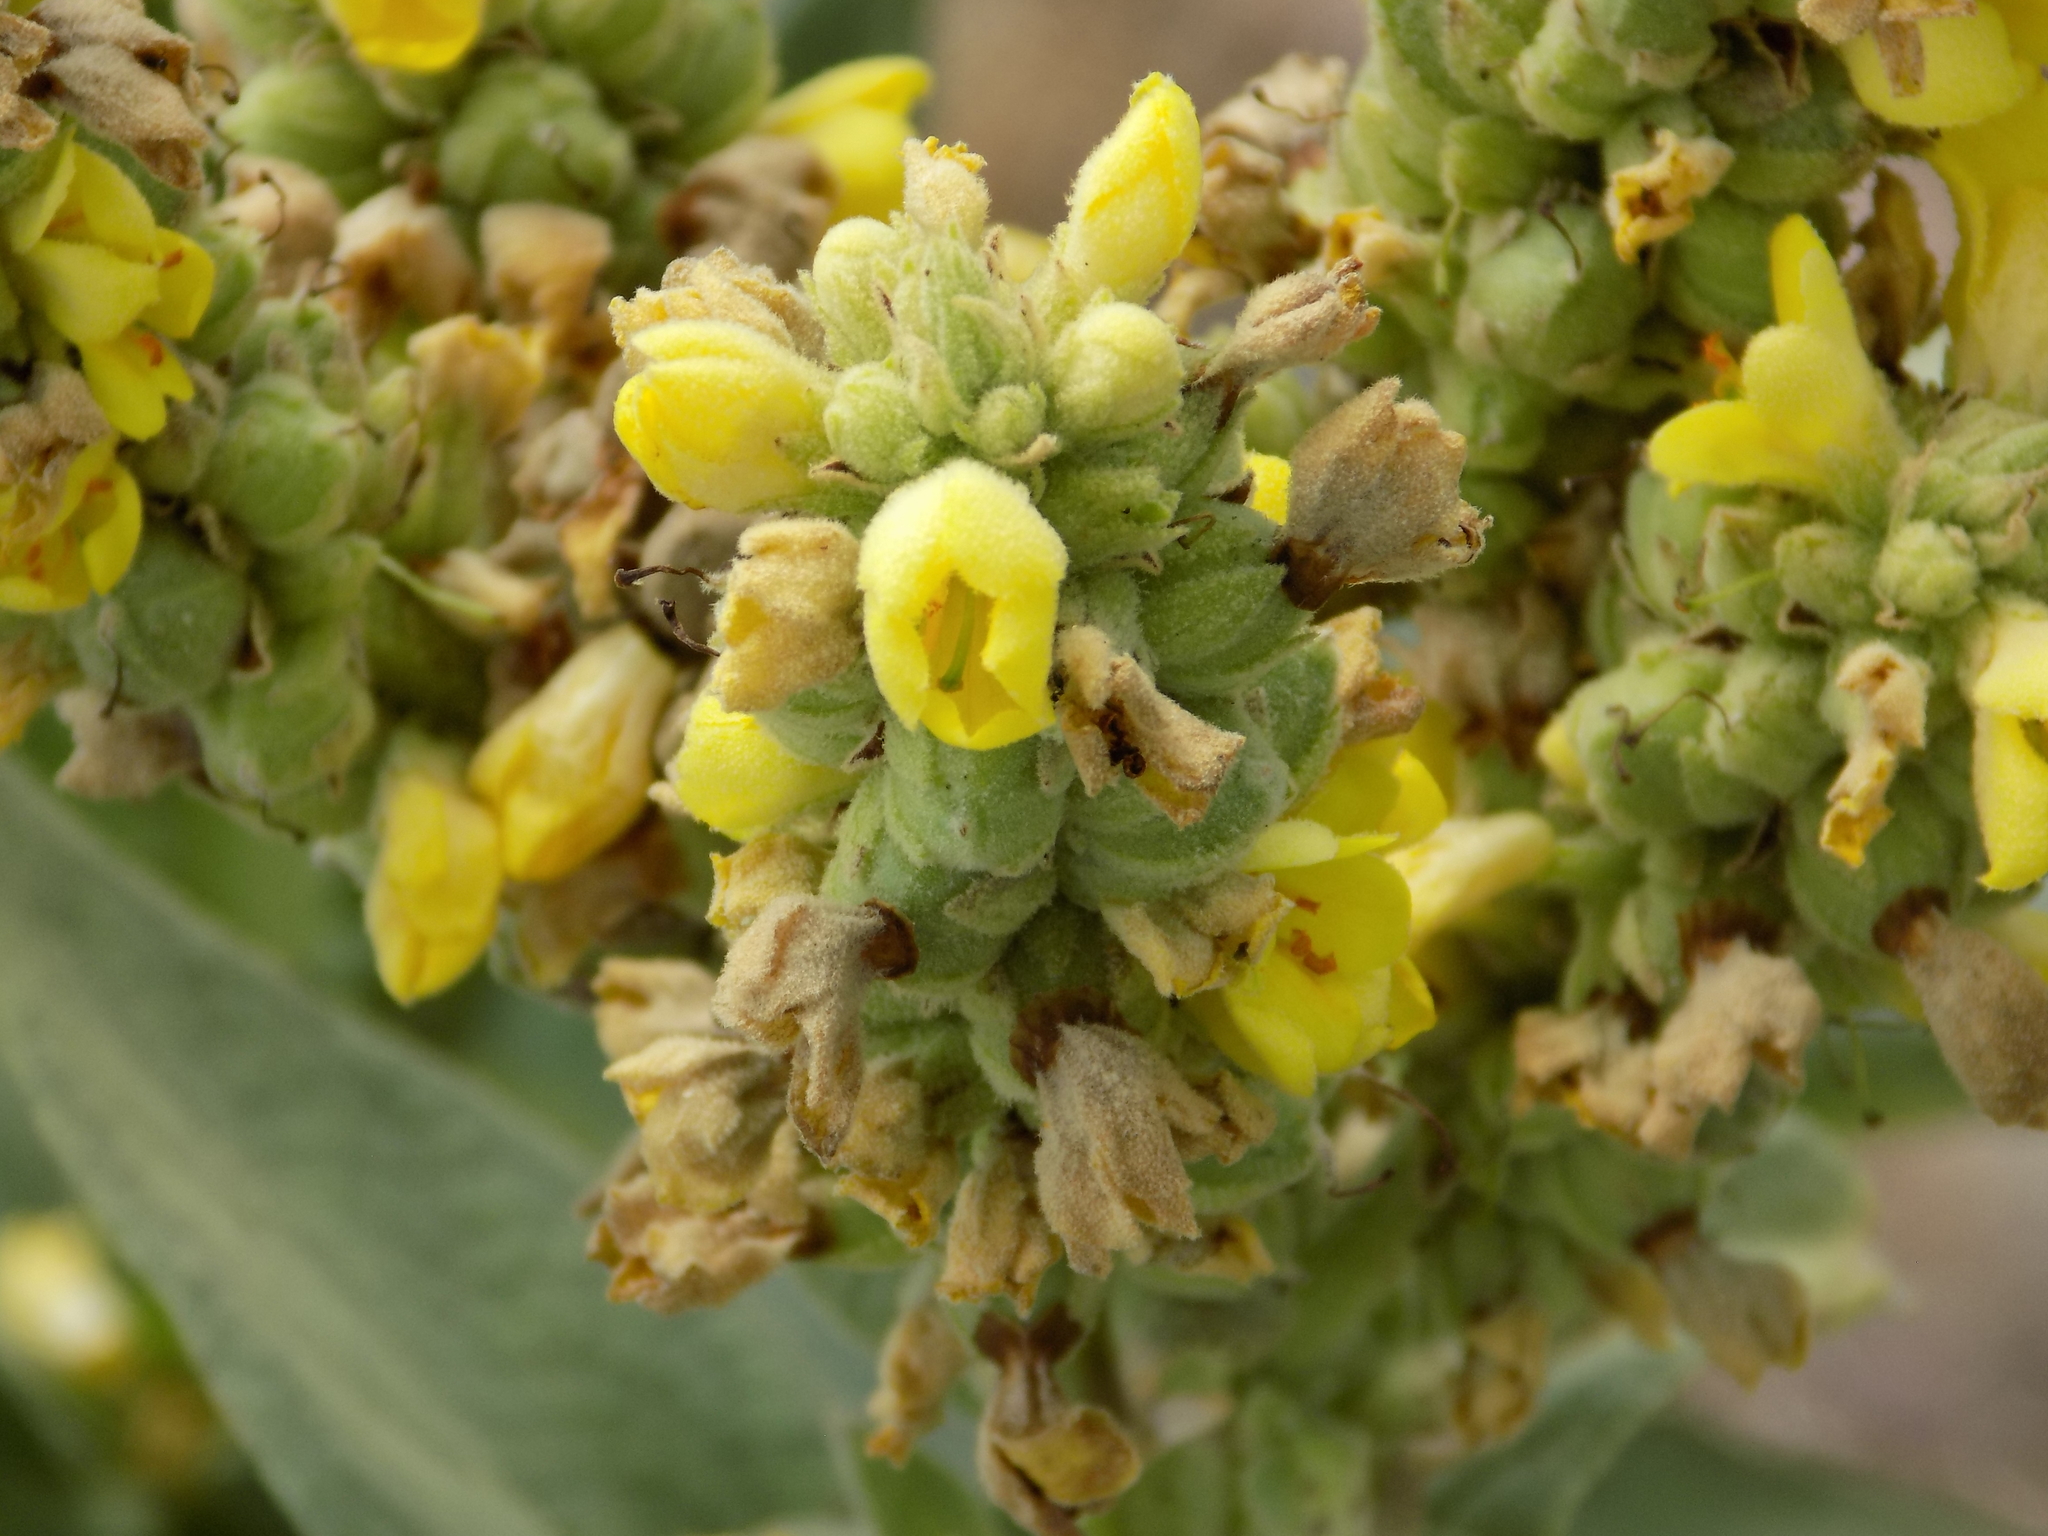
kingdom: Plantae
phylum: Tracheophyta
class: Magnoliopsida
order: Lamiales
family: Scrophulariaceae
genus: Verbascum
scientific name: Verbascum thapsus
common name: Common mullein
